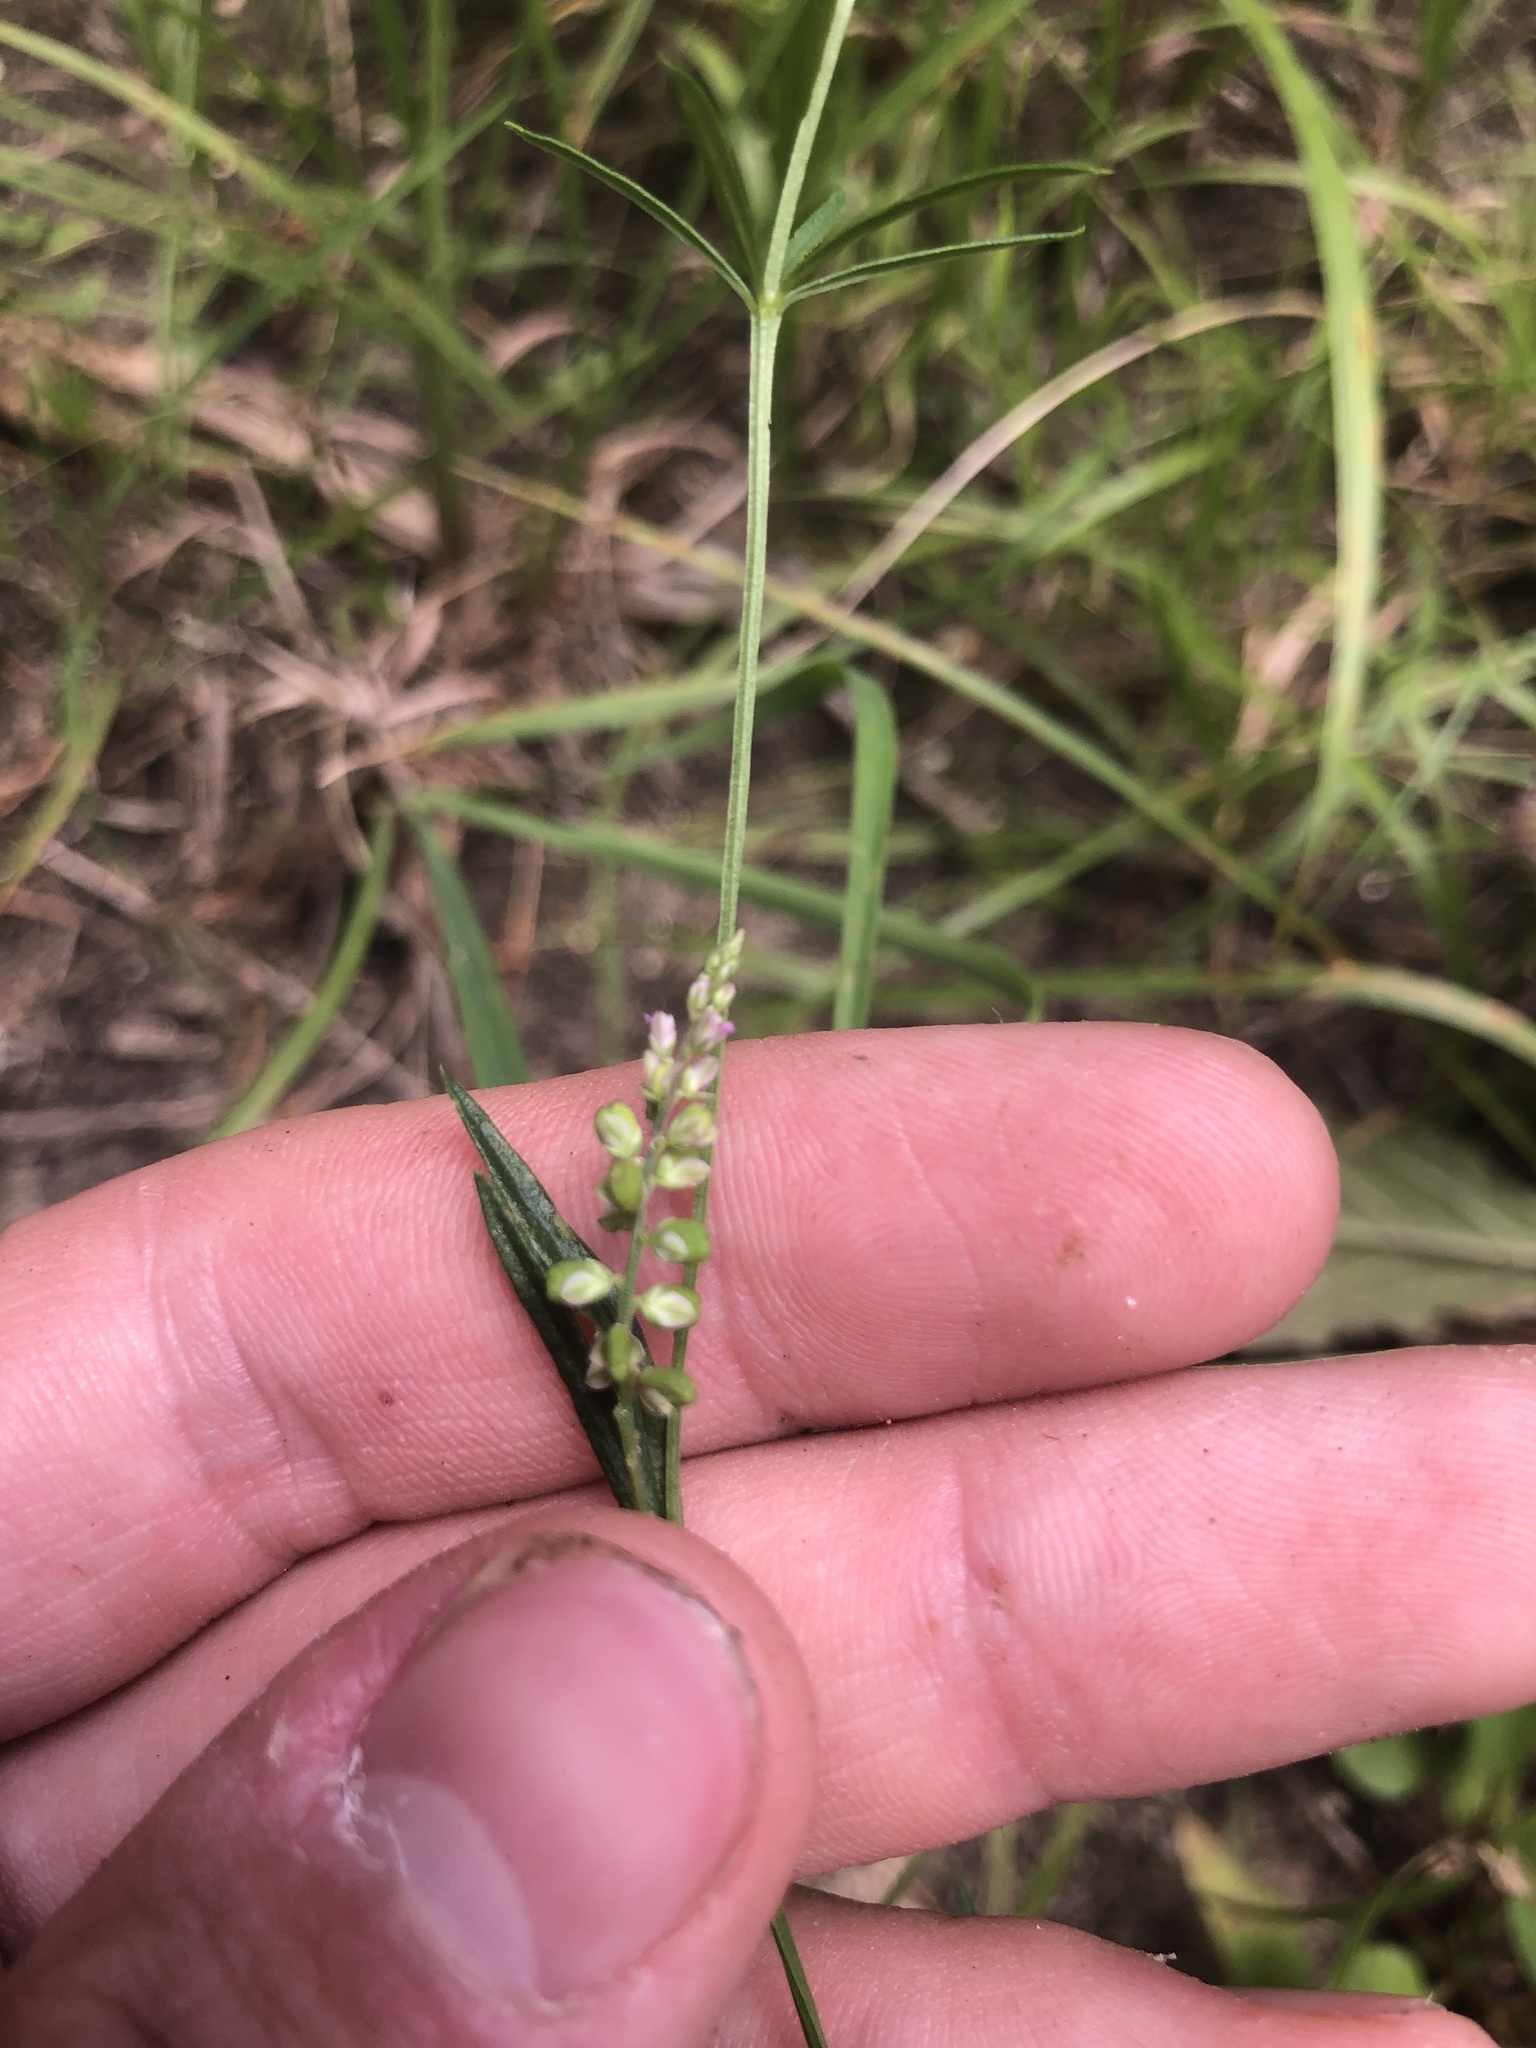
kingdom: Plantae
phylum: Tracheophyta
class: Magnoliopsida
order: Fabales
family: Polygalaceae
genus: Polygala
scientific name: Polygala verticillata
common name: Whorl milkwort
